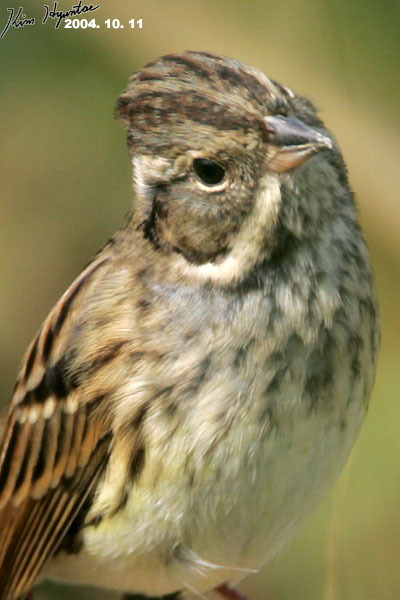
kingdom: Animalia
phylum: Chordata
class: Aves
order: Passeriformes
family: Emberizidae
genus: Emberiza
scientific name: Emberiza spodocephala
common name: Black-faced bunting
